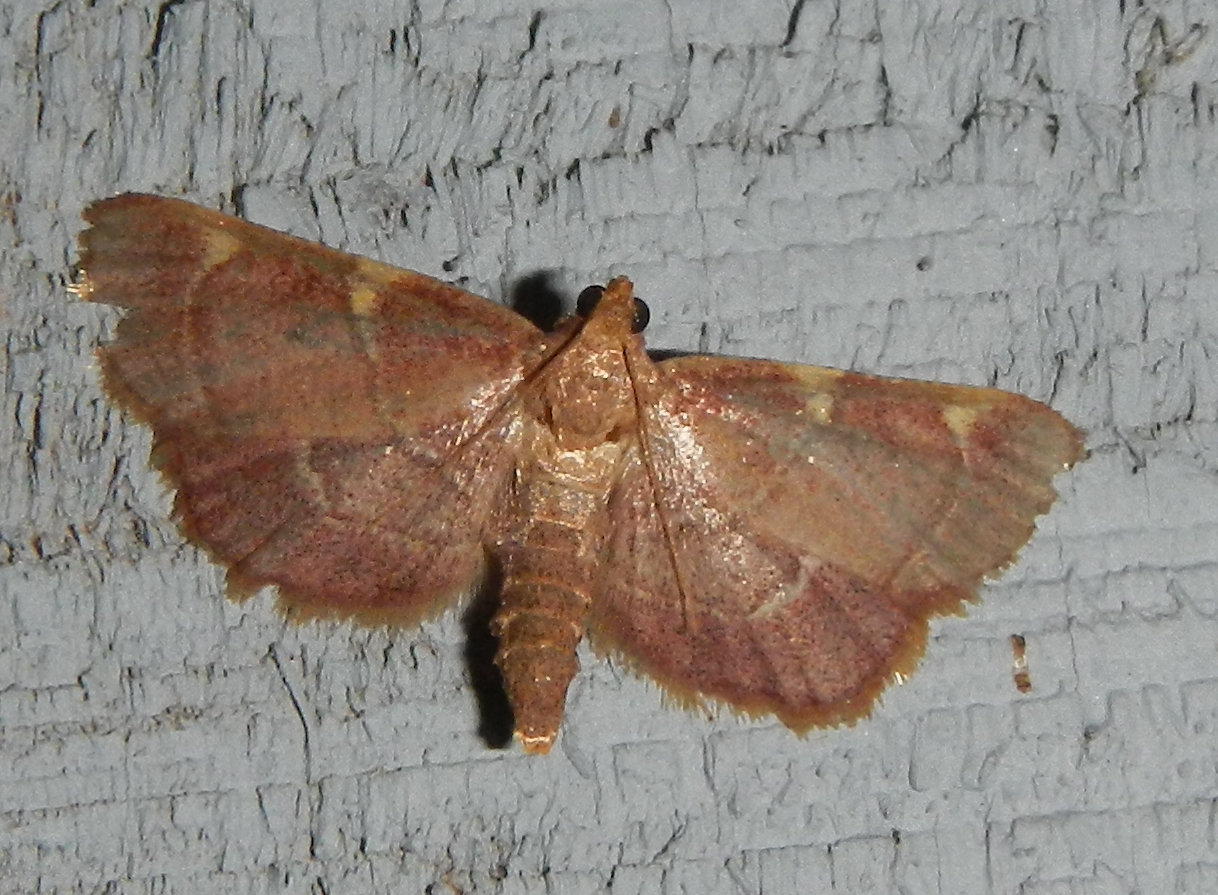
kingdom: Animalia
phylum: Arthropoda
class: Insecta
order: Lepidoptera
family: Pyralidae
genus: Hypsopygia
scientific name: Hypsopygia olinalis
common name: Yellow-fringed dolichomia moth
